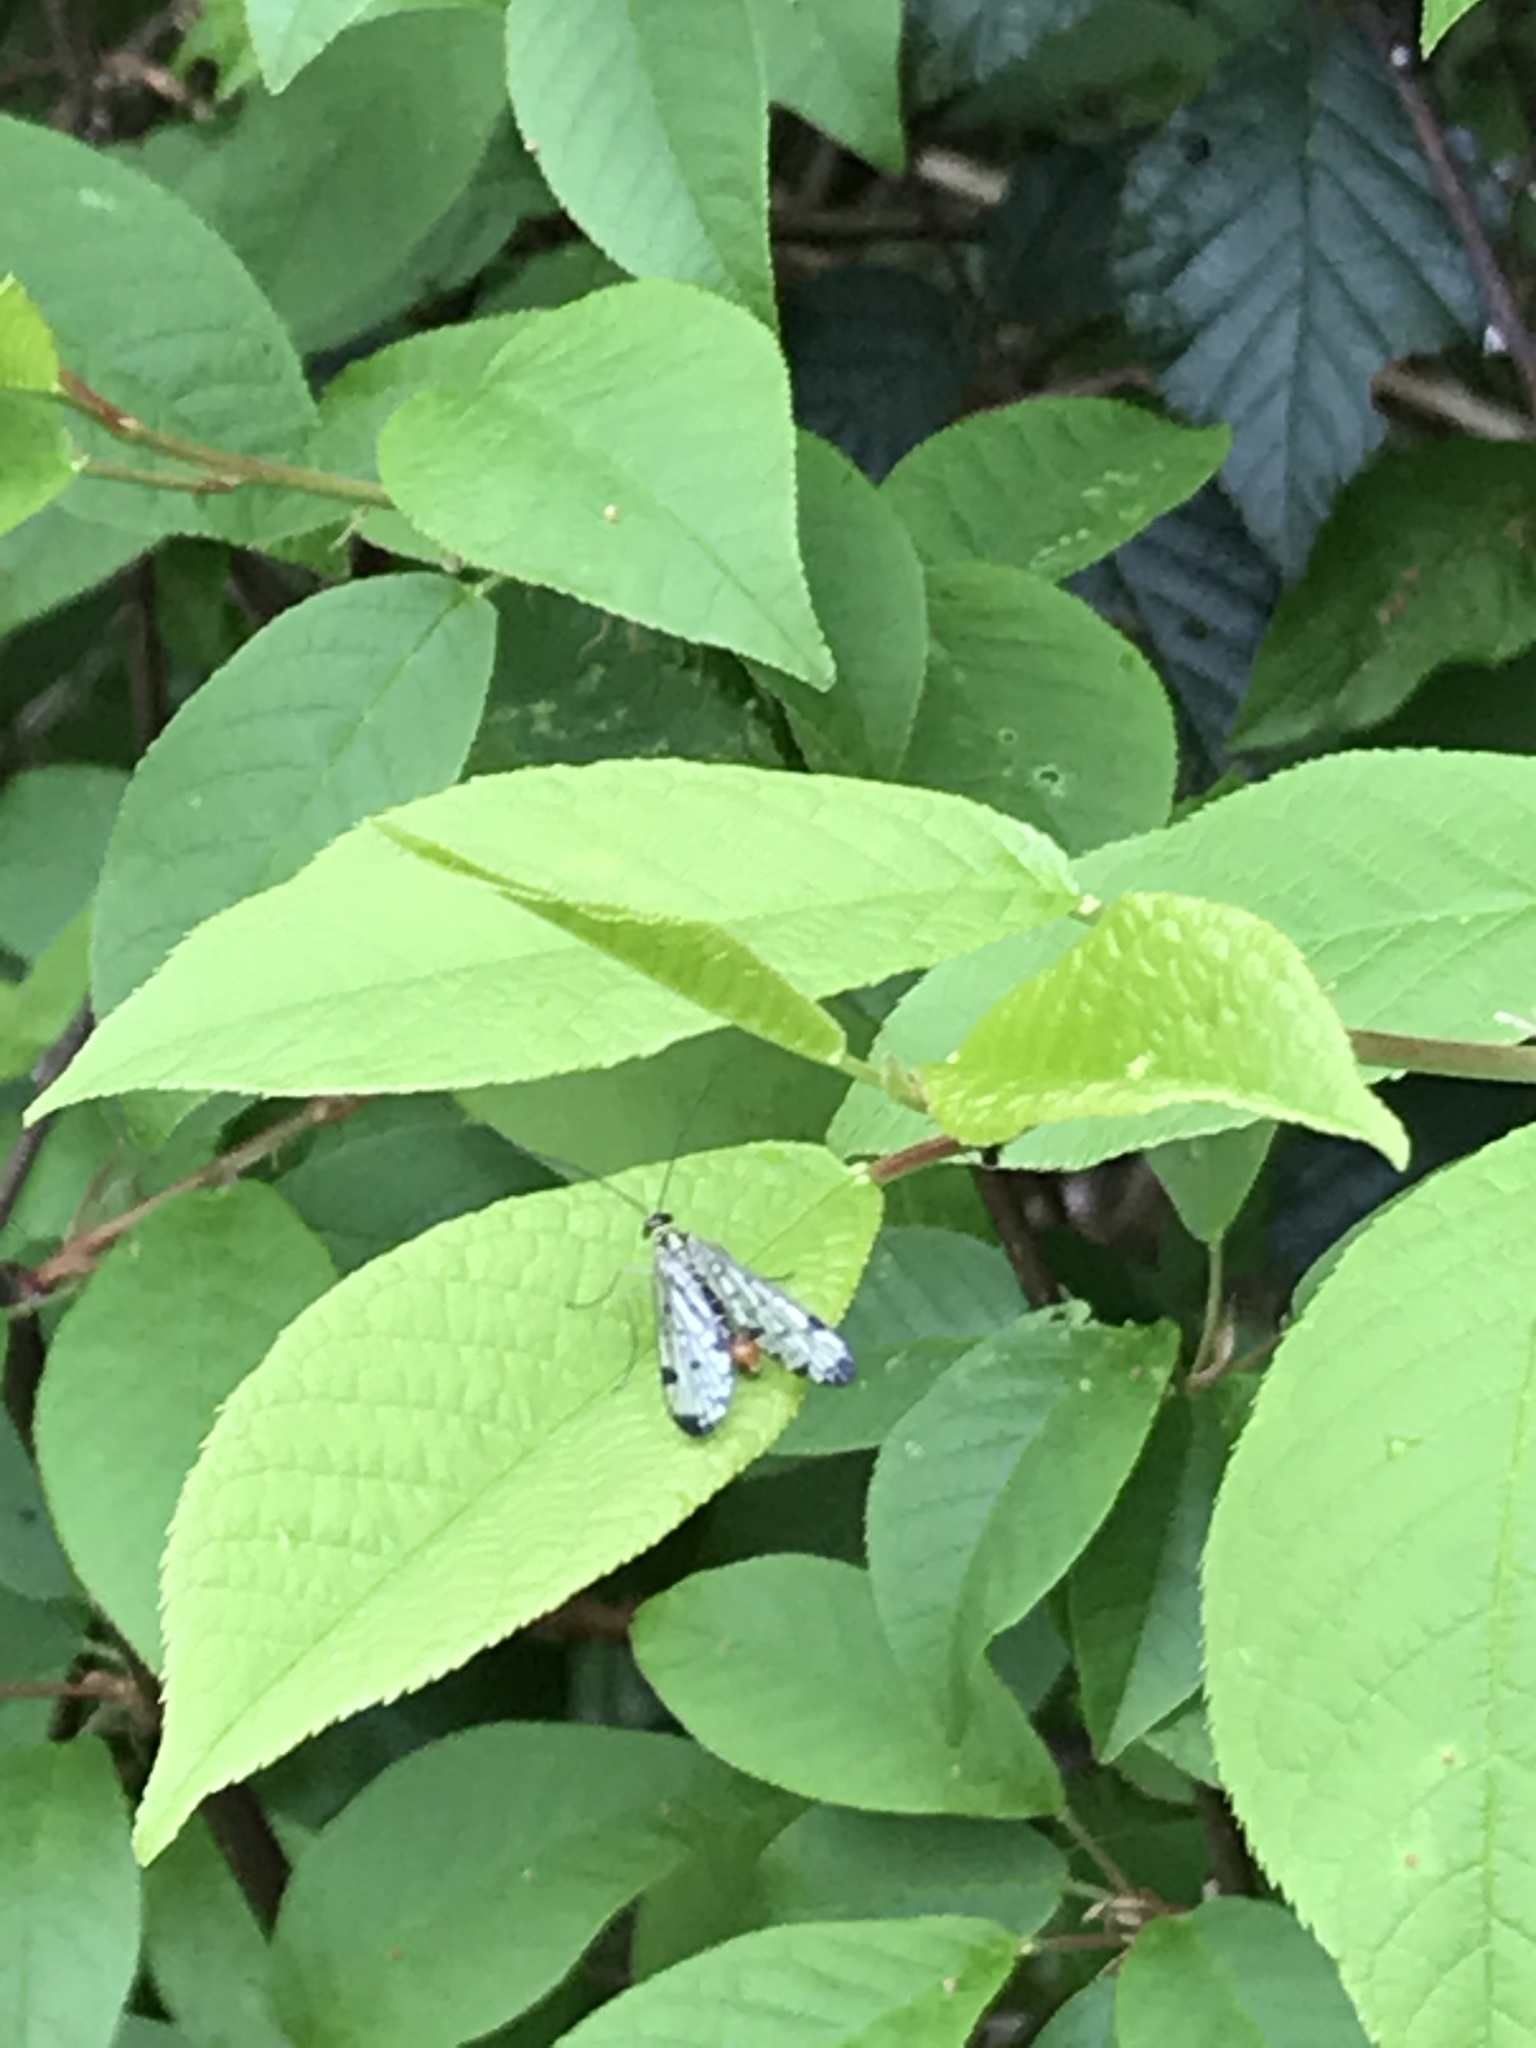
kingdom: Animalia
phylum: Arthropoda
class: Insecta
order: Mecoptera
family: Panorpidae
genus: Panorpa
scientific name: Panorpa germanica
